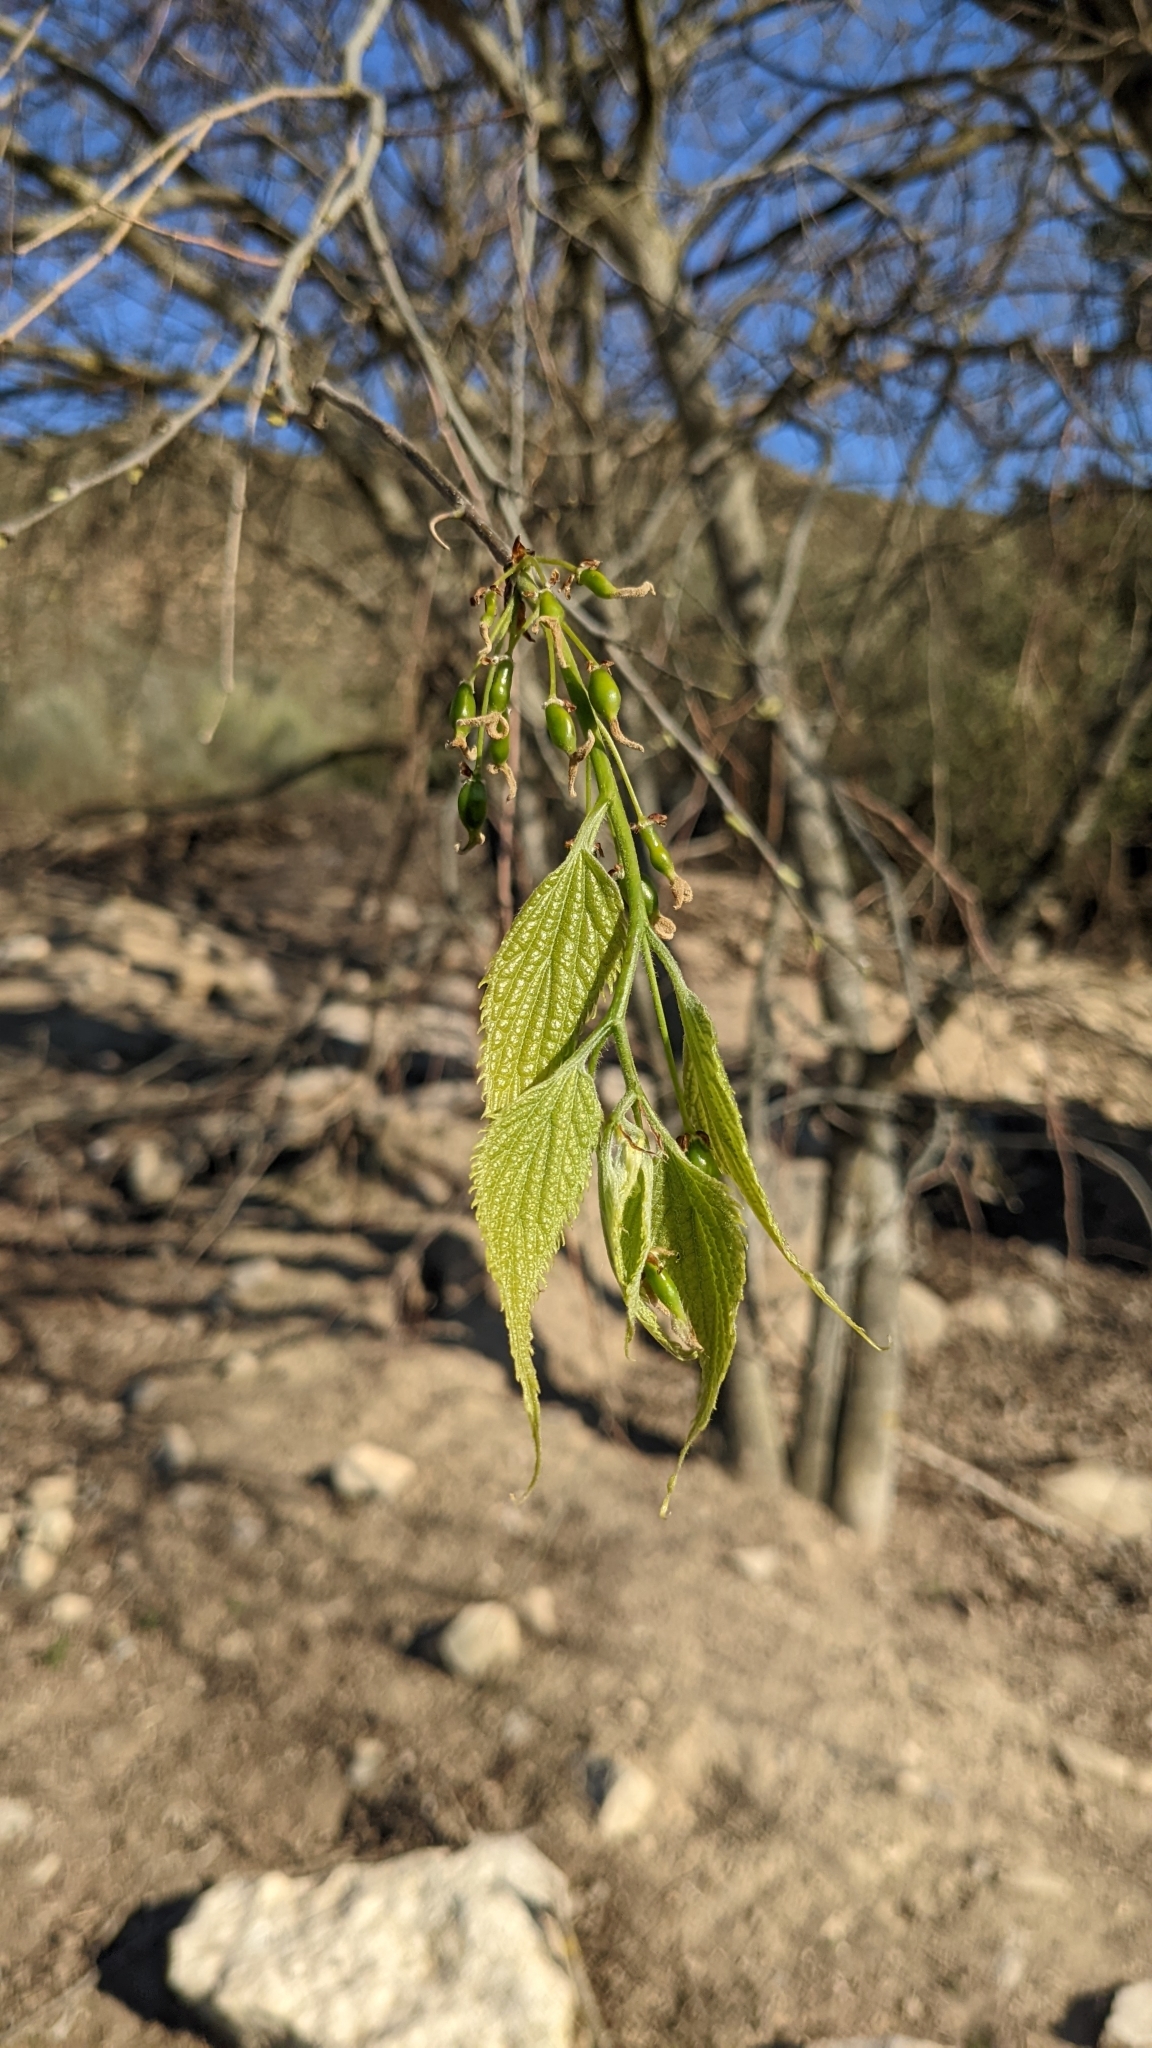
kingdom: Plantae
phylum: Tracheophyta
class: Magnoliopsida
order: Rosales
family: Cannabaceae
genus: Celtis
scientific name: Celtis australis
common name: European hackberry
